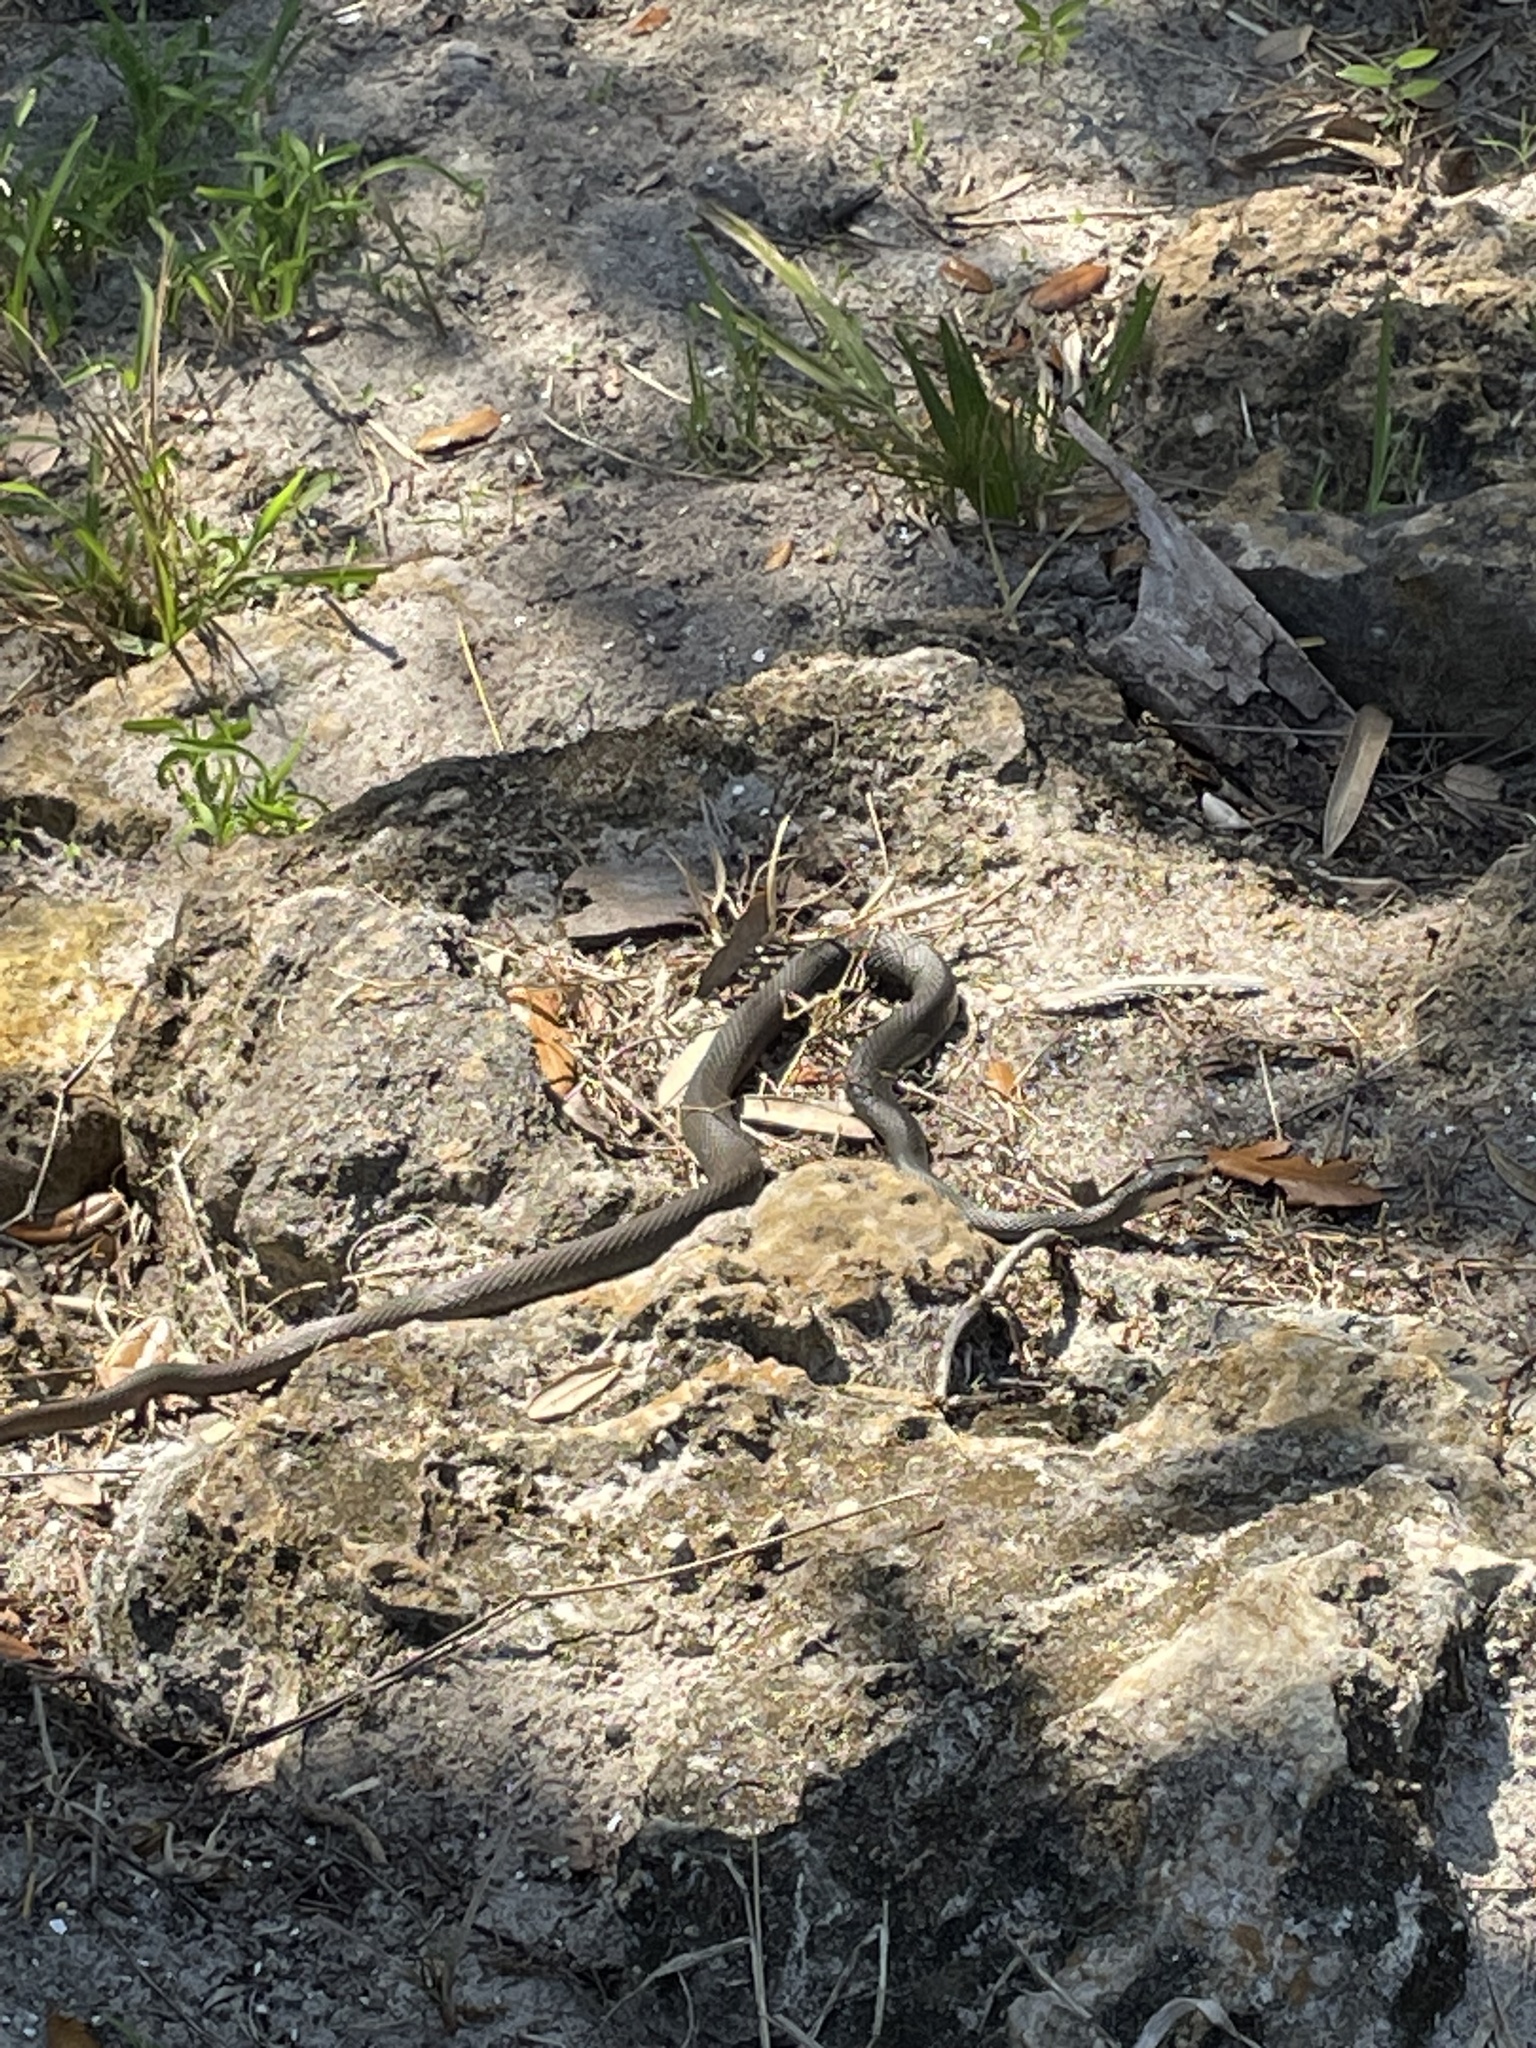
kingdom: Animalia
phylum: Chordata
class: Squamata
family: Colubridae
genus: Coluber
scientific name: Coluber constrictor
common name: Eastern racer
